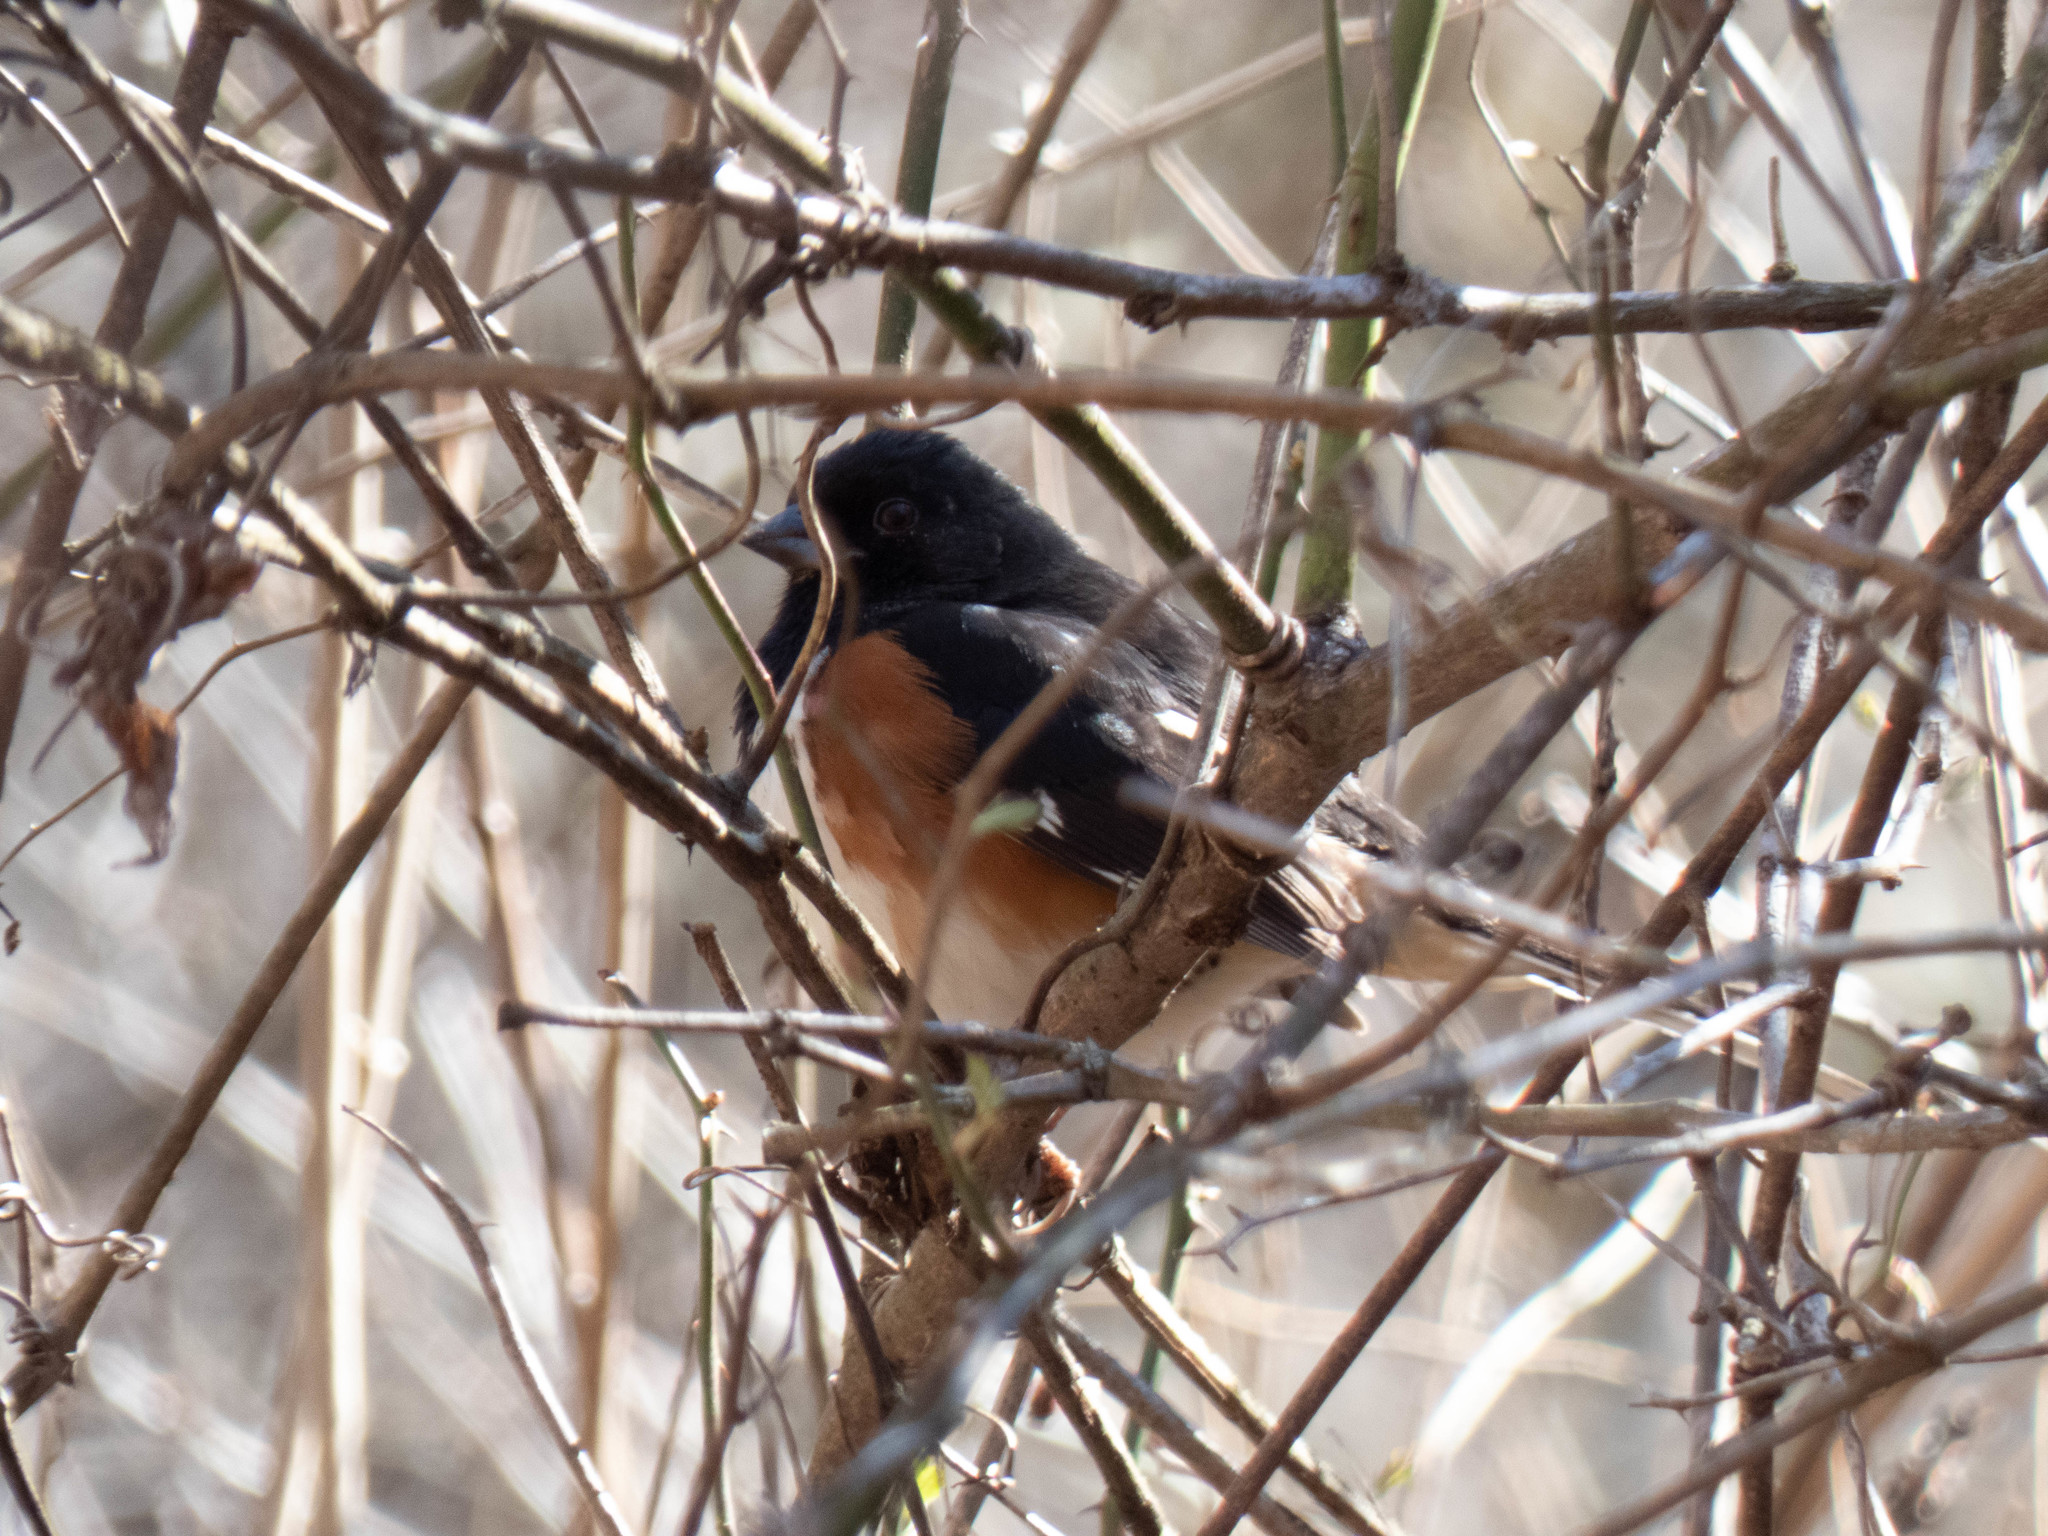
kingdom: Animalia
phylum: Chordata
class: Aves
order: Passeriformes
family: Passerellidae
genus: Pipilo
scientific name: Pipilo erythrophthalmus
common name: Eastern towhee
